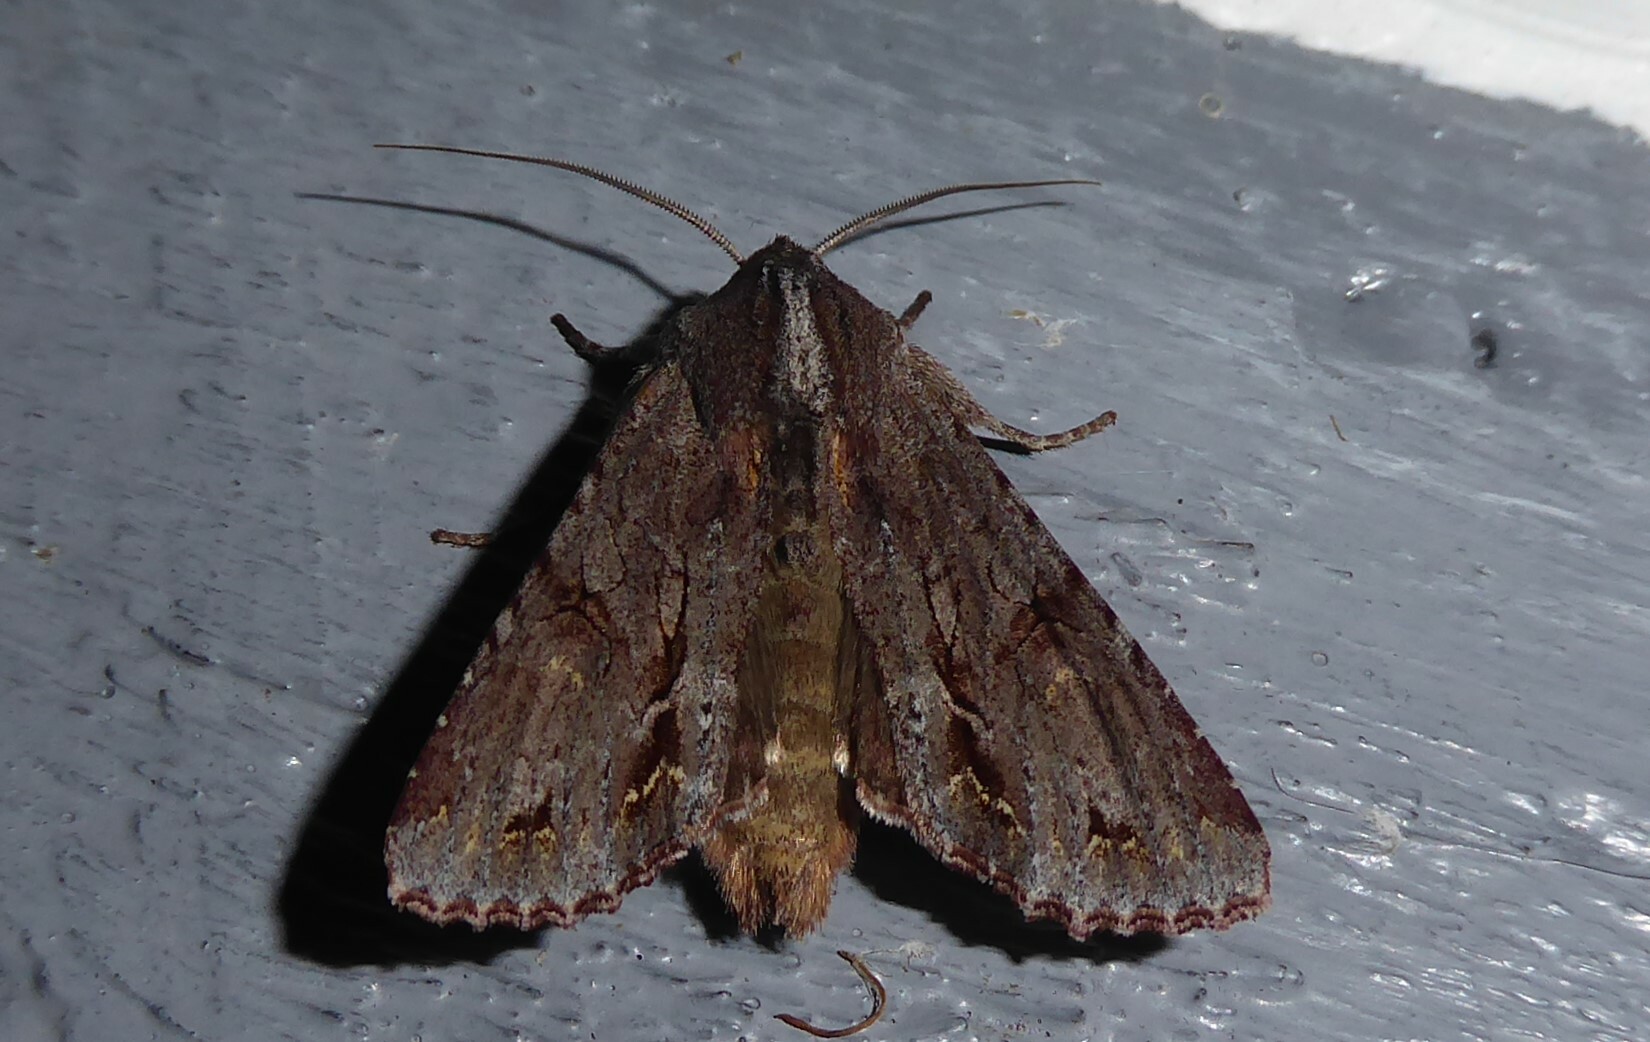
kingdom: Animalia
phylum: Arthropoda
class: Insecta
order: Lepidoptera
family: Noctuidae
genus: Ichneutica
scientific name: Ichneutica
